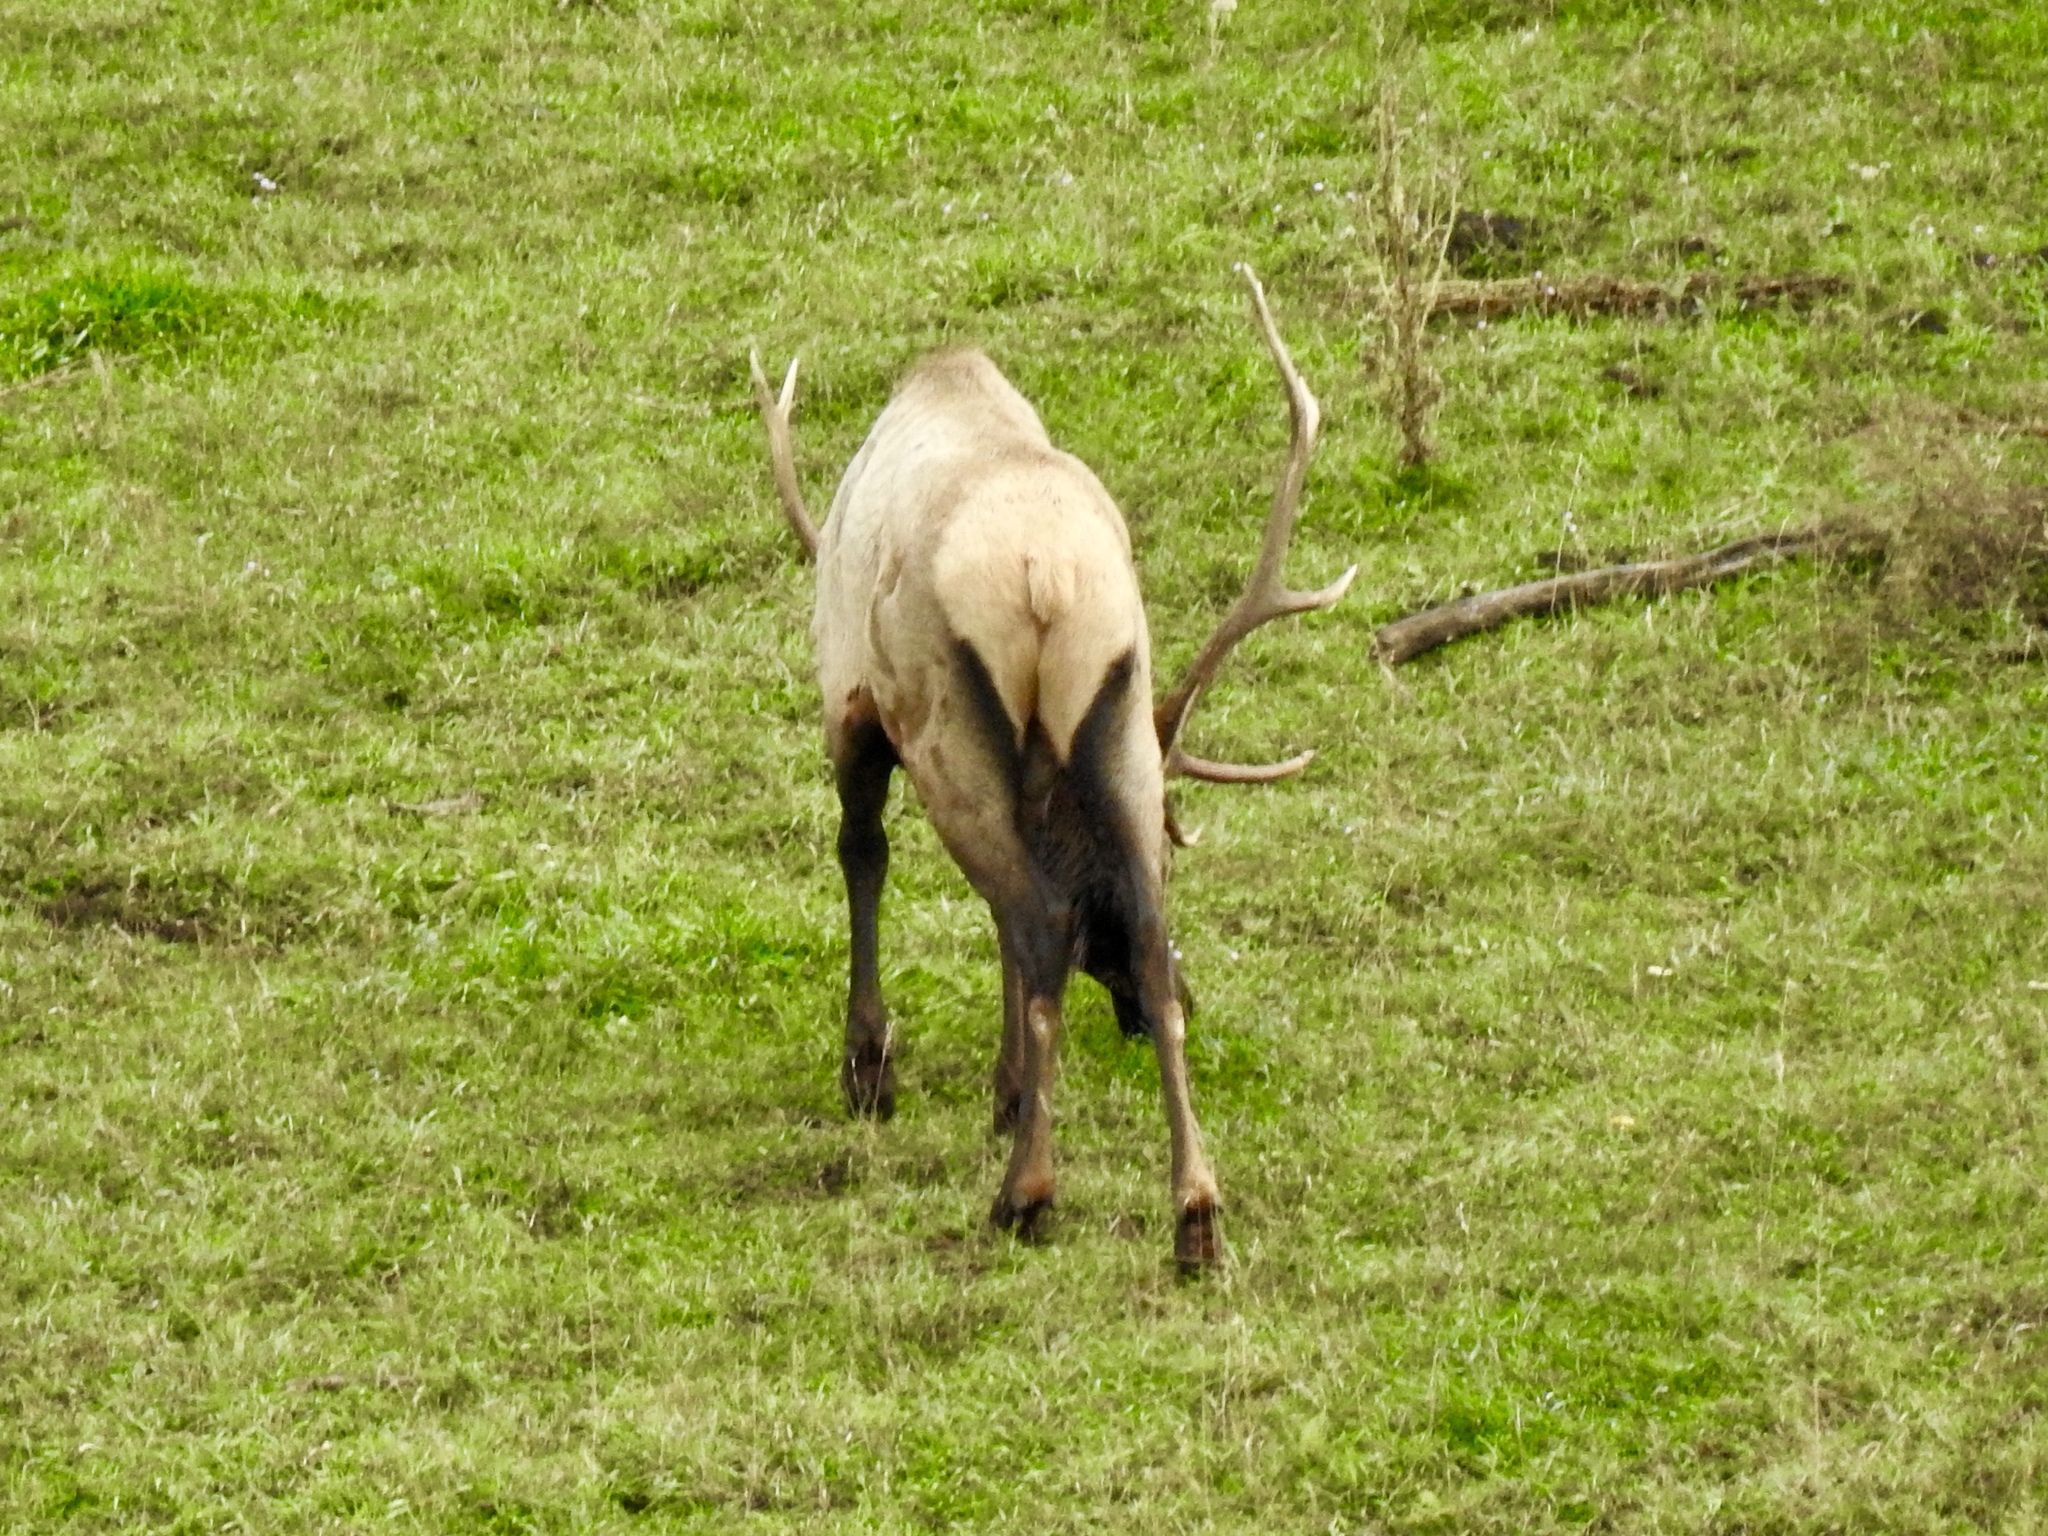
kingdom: Animalia
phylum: Chordata
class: Mammalia
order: Artiodactyla
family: Cervidae
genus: Cervus
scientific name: Cervus elaphus
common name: Red deer
